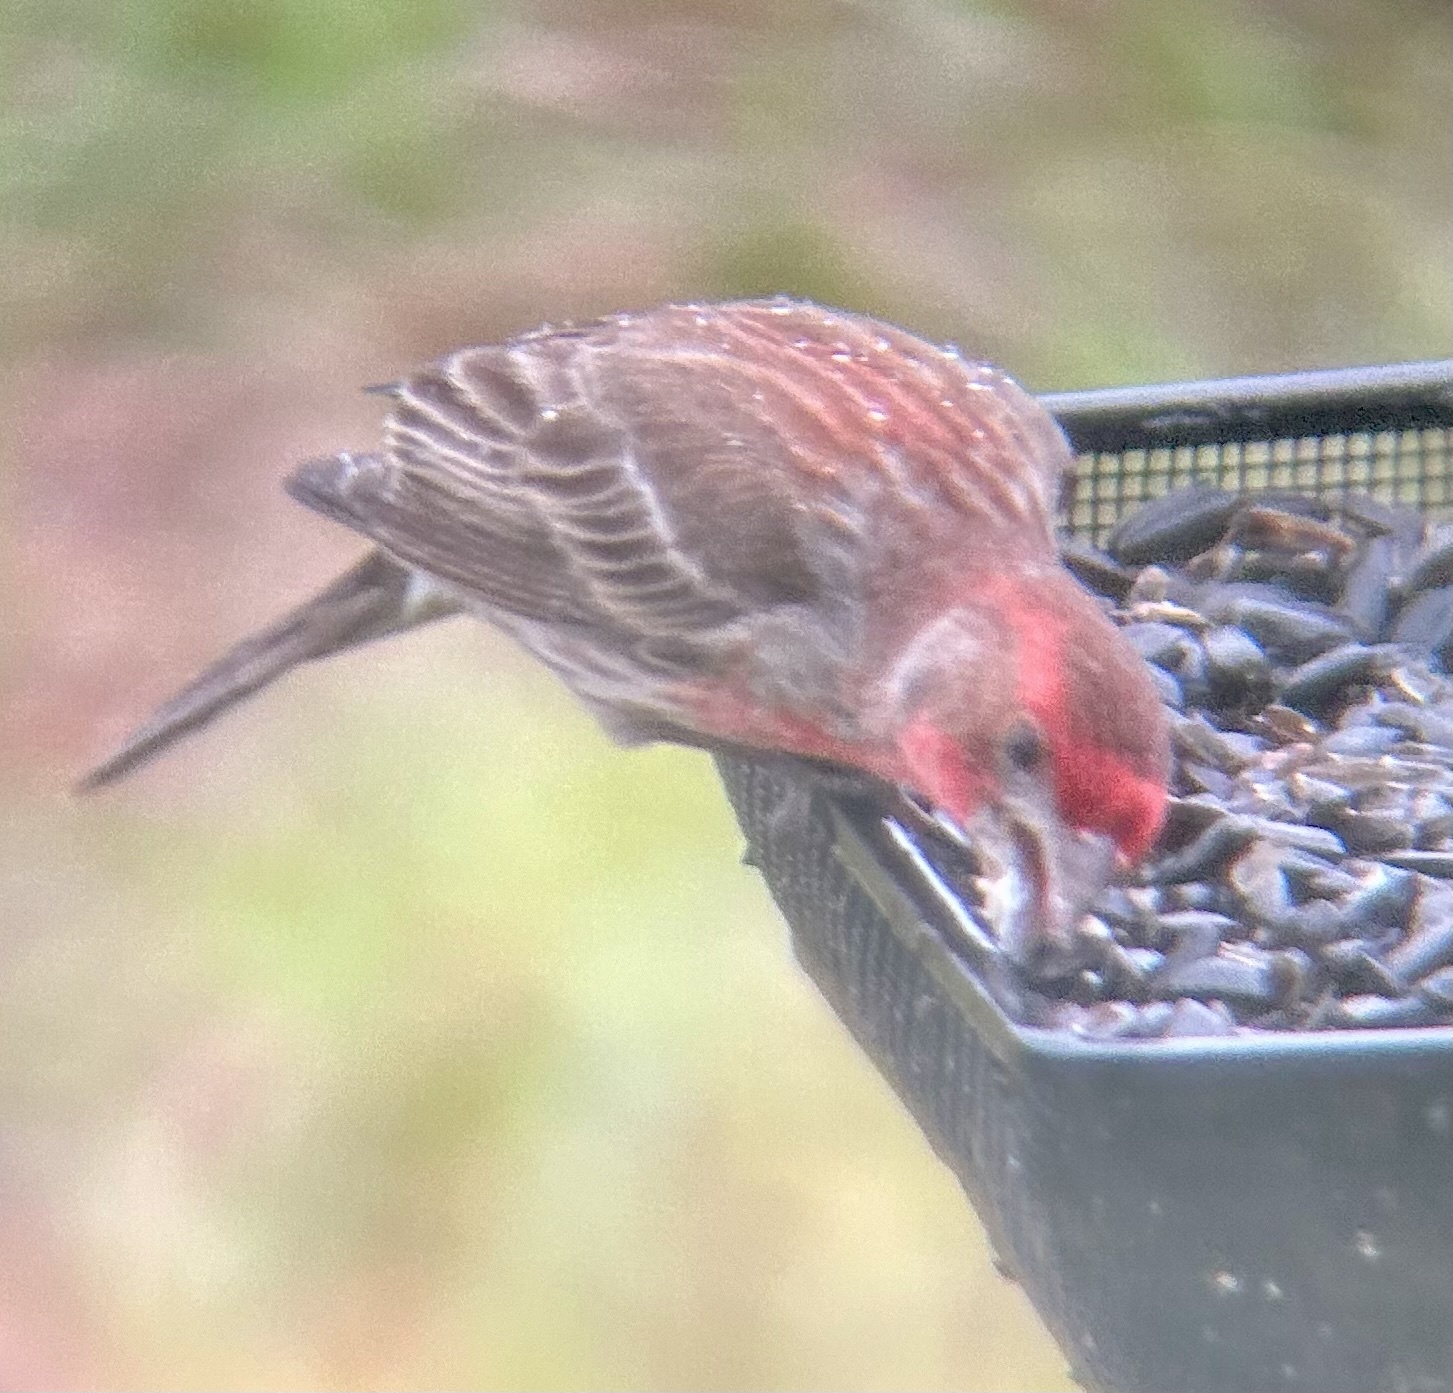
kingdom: Animalia
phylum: Chordata
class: Aves
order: Passeriformes
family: Fringillidae
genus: Haemorhous
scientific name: Haemorhous mexicanus
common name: House finch
